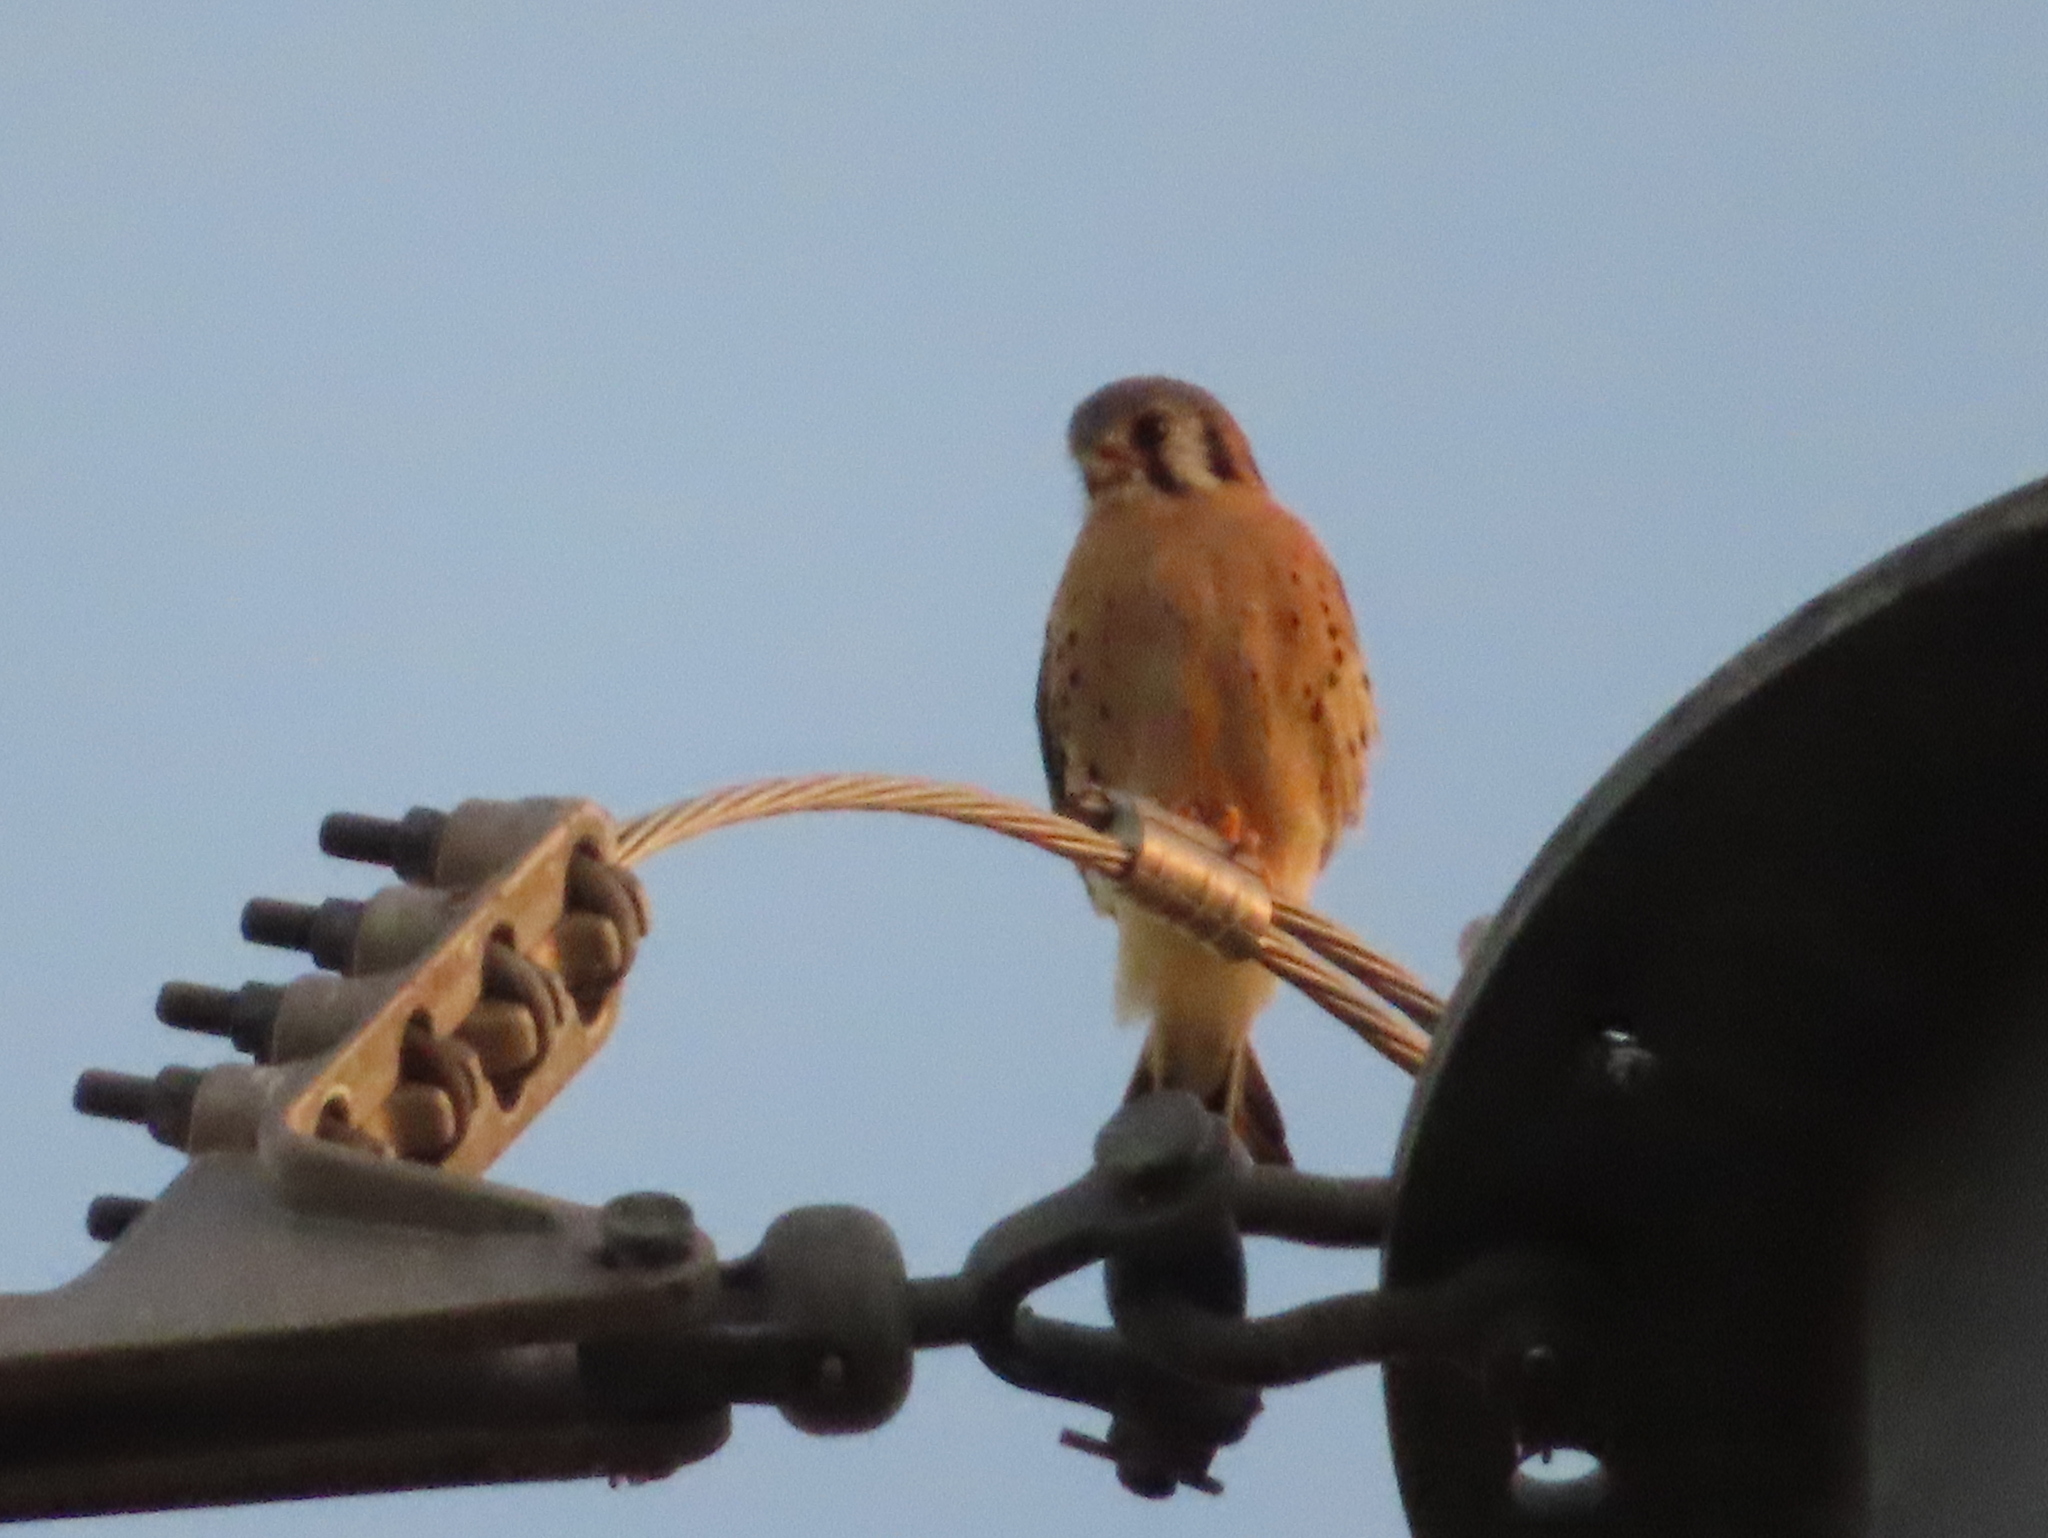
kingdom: Animalia
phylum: Chordata
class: Aves
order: Falconiformes
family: Falconidae
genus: Falco
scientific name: Falco sparverius
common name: American kestrel
